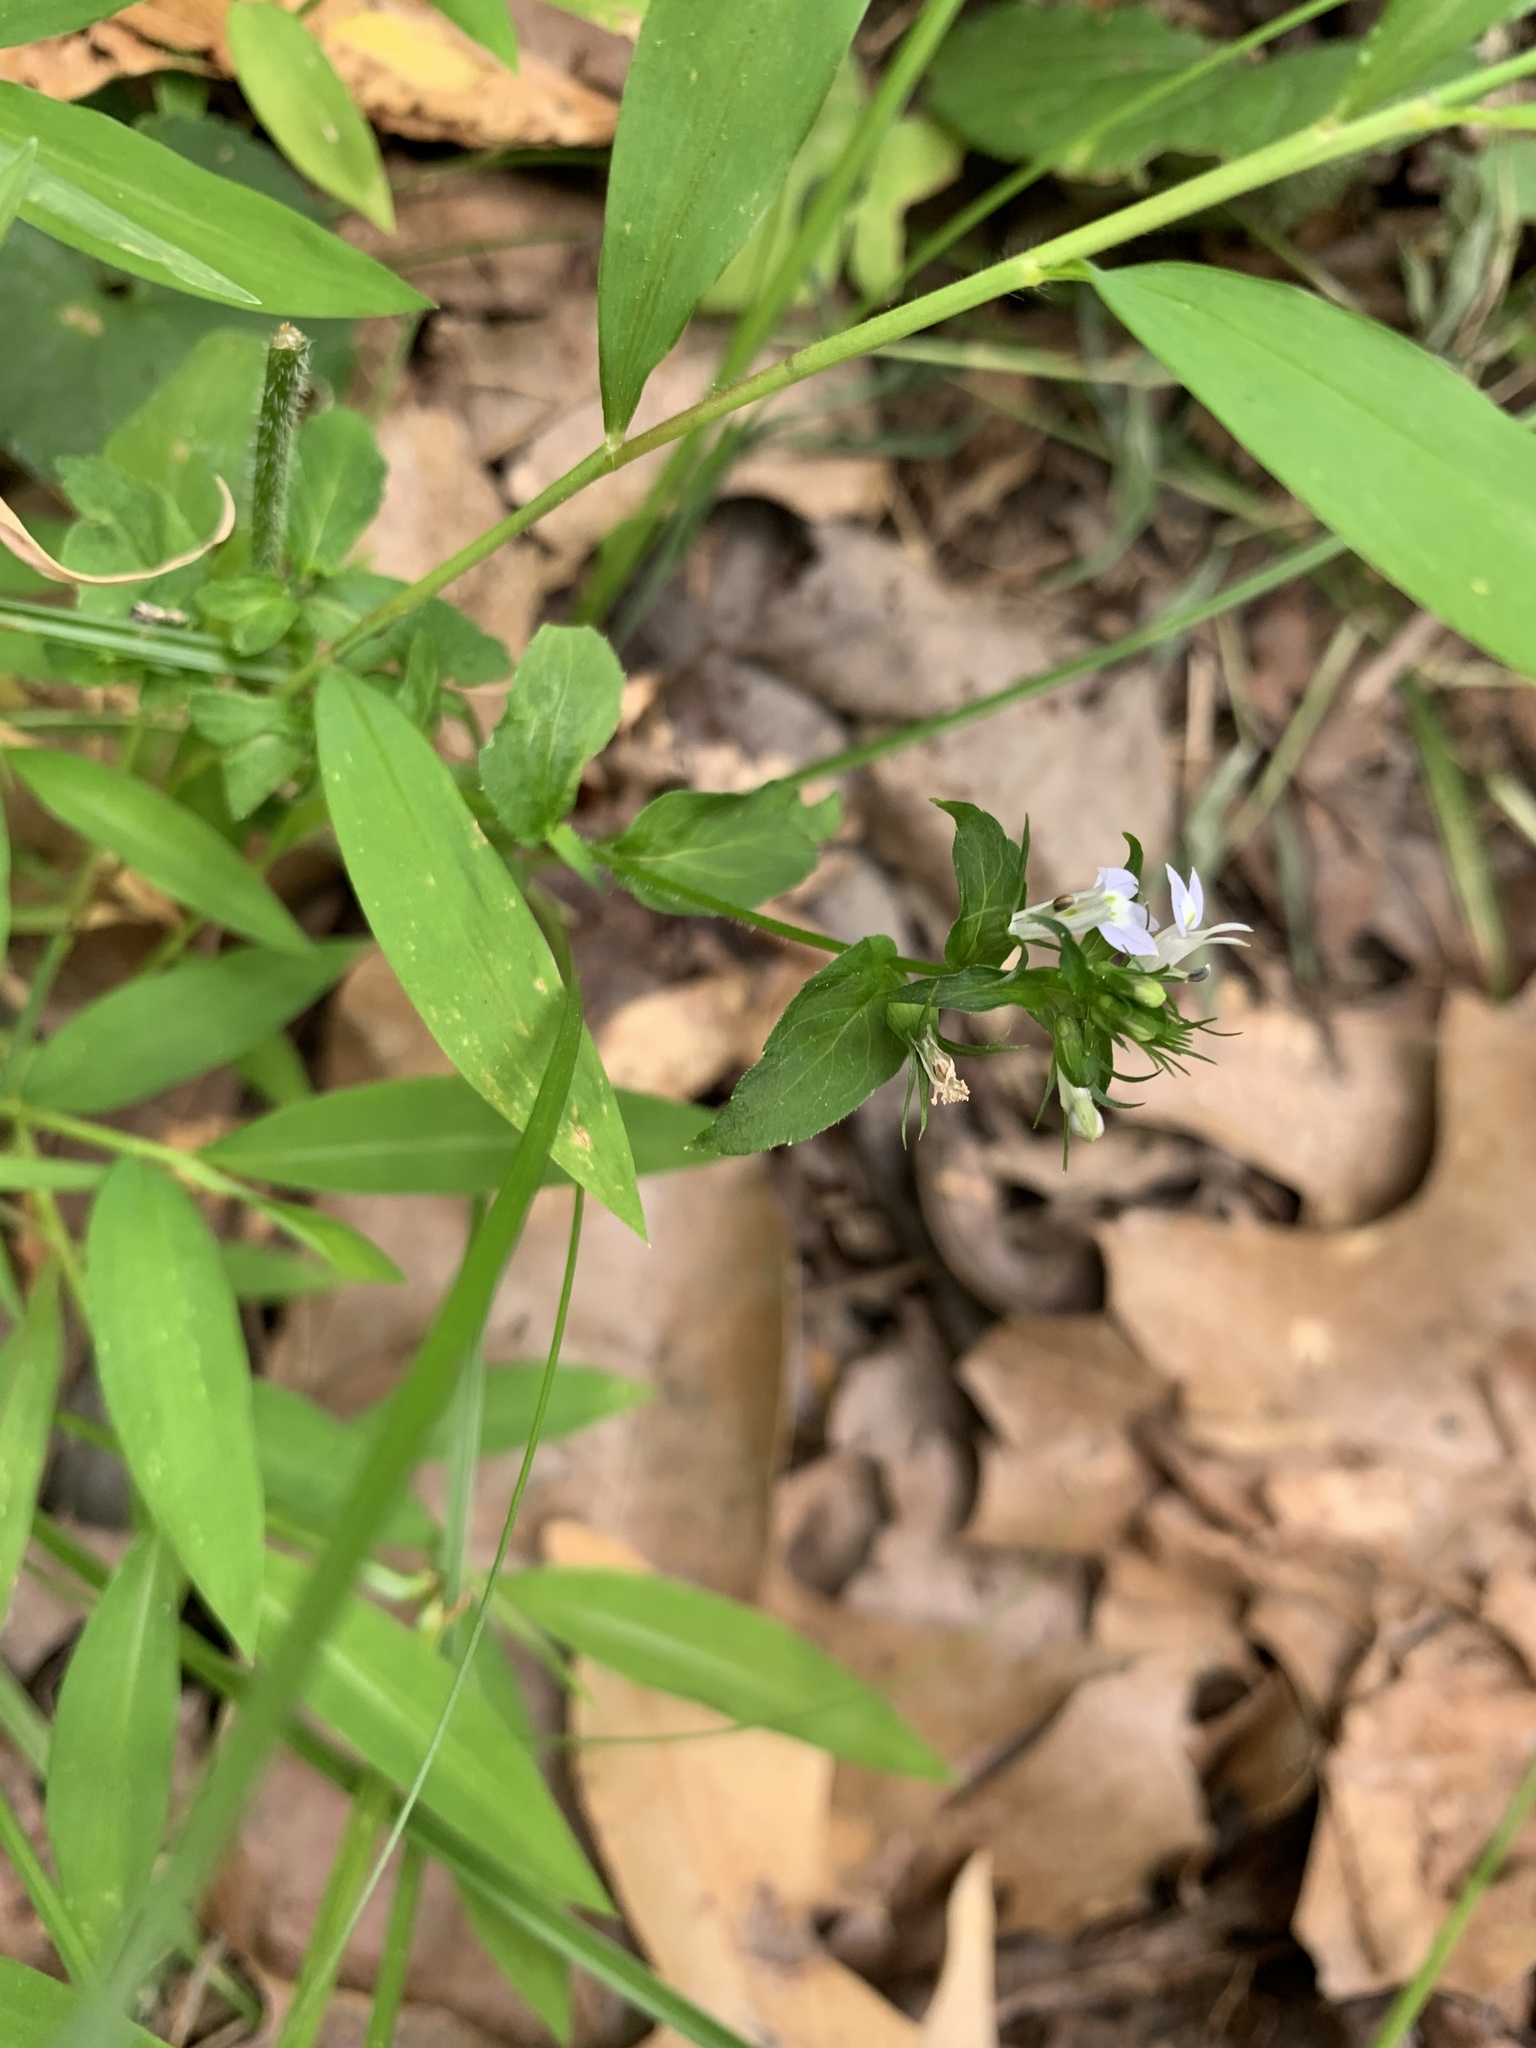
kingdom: Plantae
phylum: Tracheophyta
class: Magnoliopsida
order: Asterales
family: Campanulaceae
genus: Lobelia
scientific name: Lobelia inflata
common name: Indian tobacco
